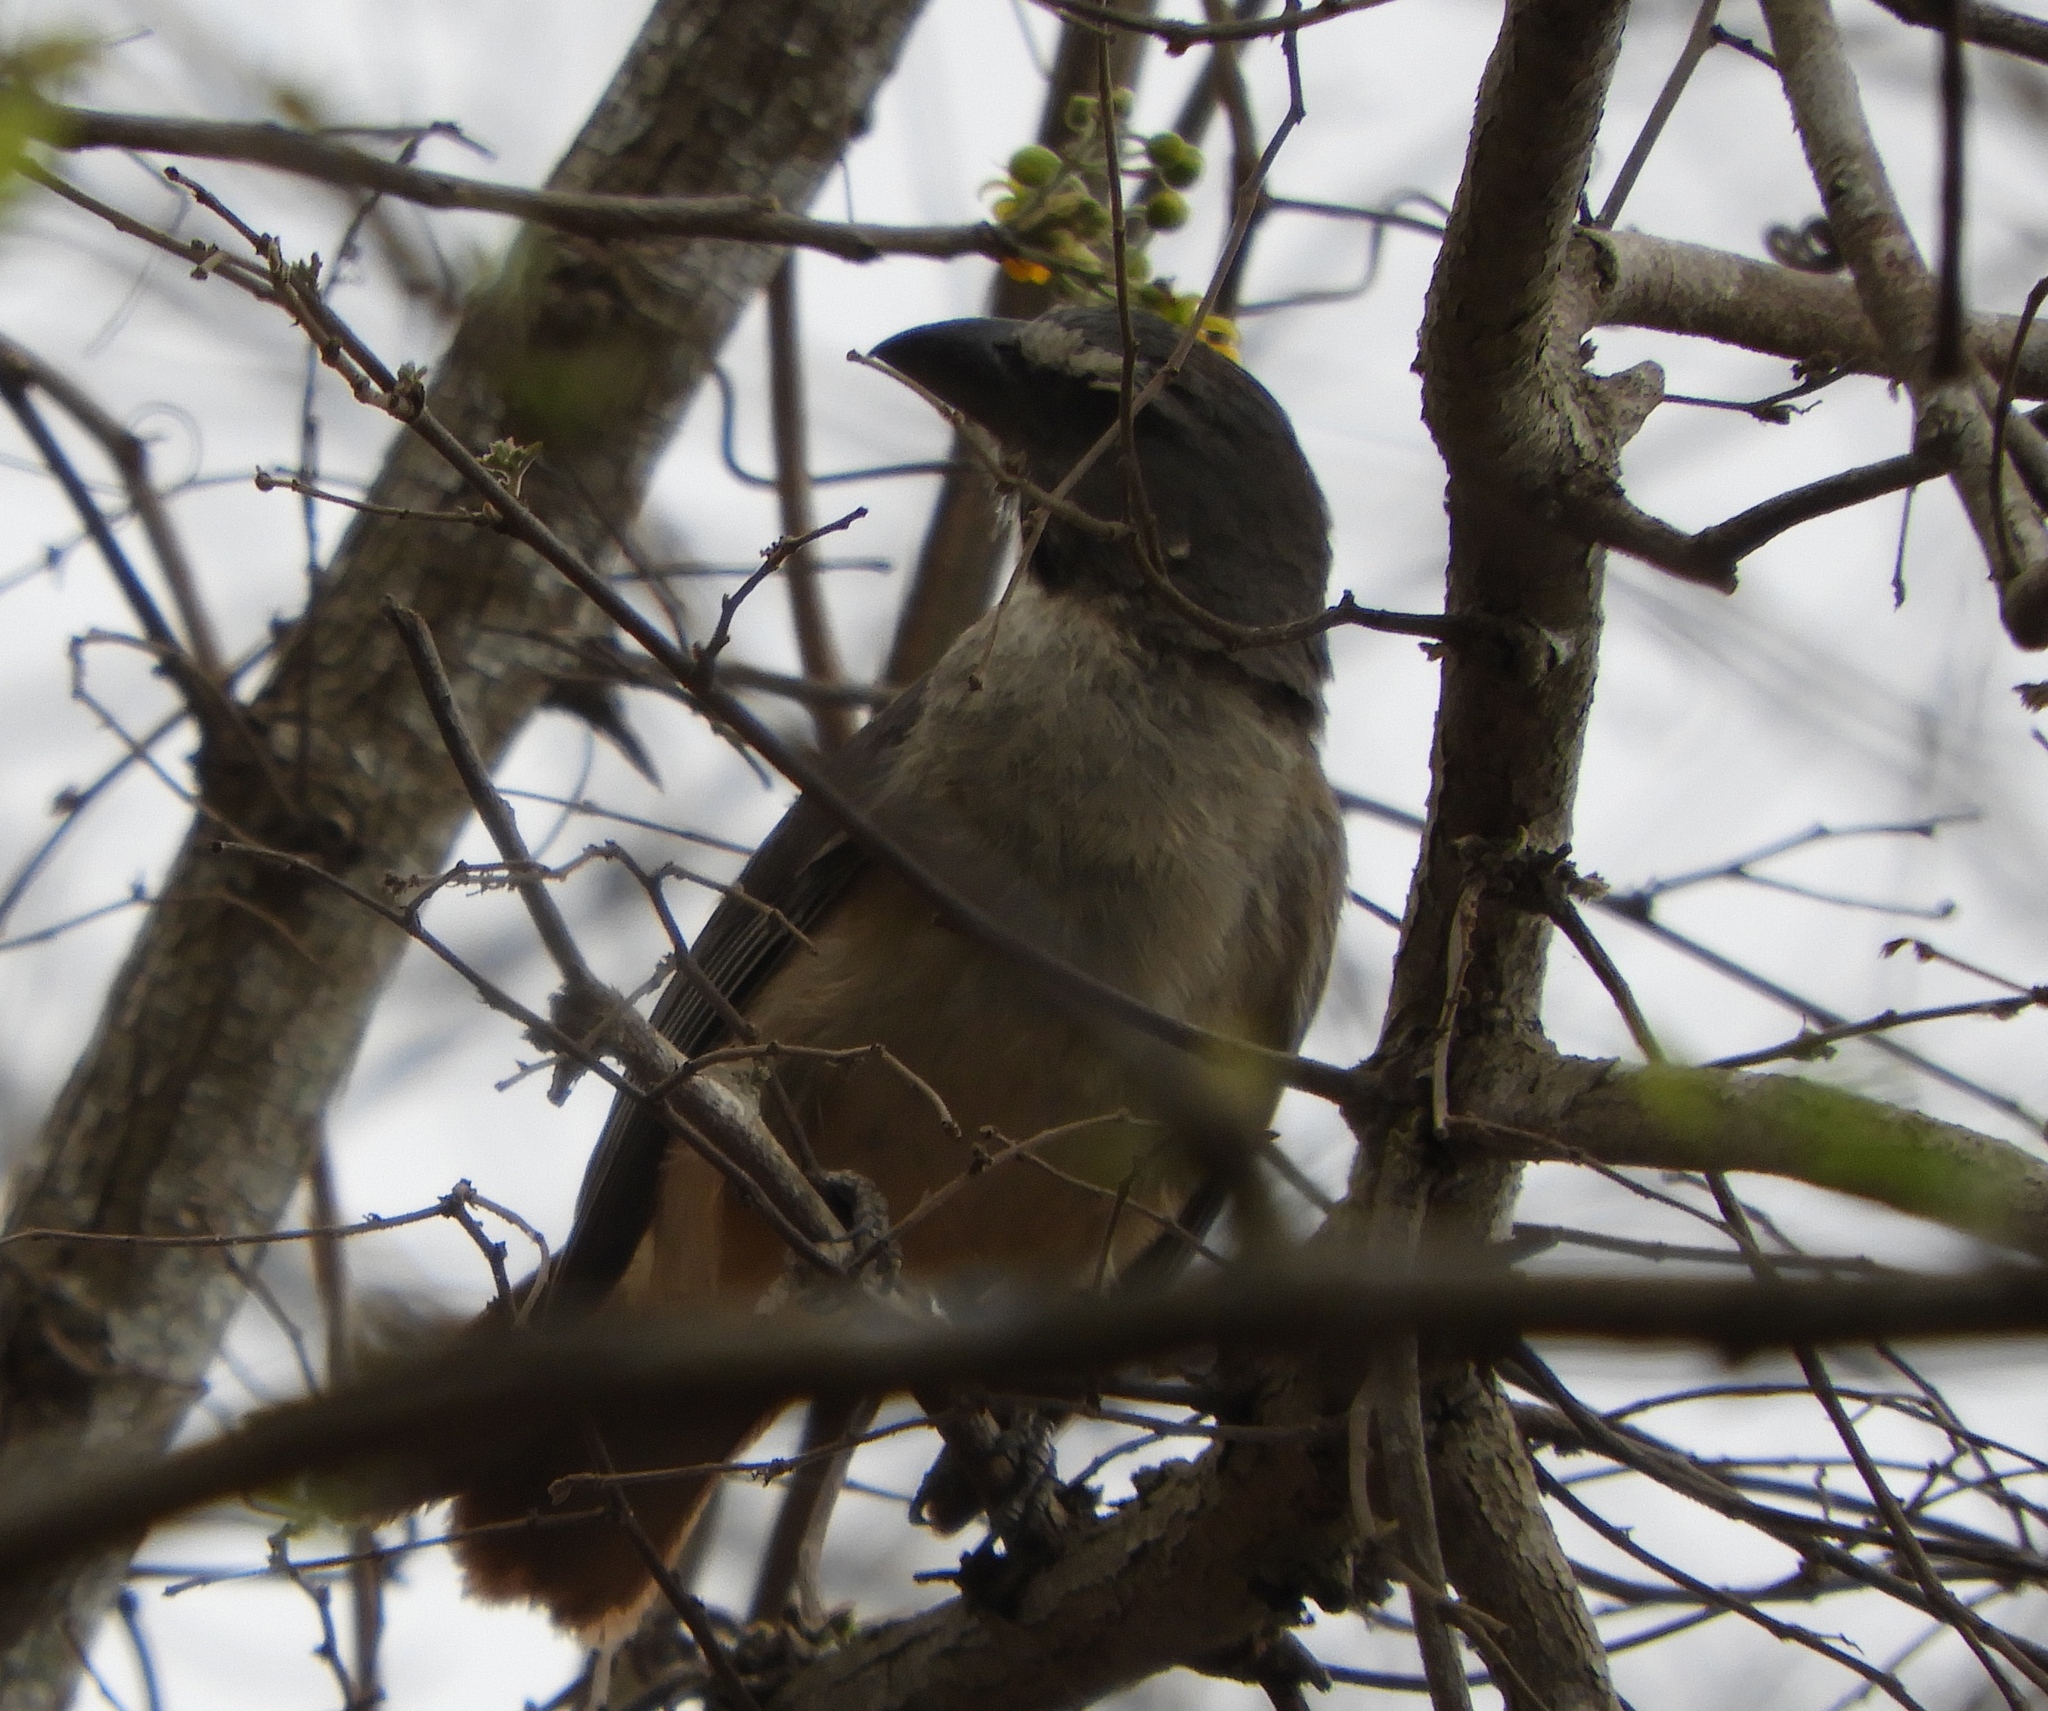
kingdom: Animalia
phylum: Chordata
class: Aves
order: Passeriformes
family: Thraupidae
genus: Saltator
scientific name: Saltator grandis
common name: Cinnamon-bellied saltator
